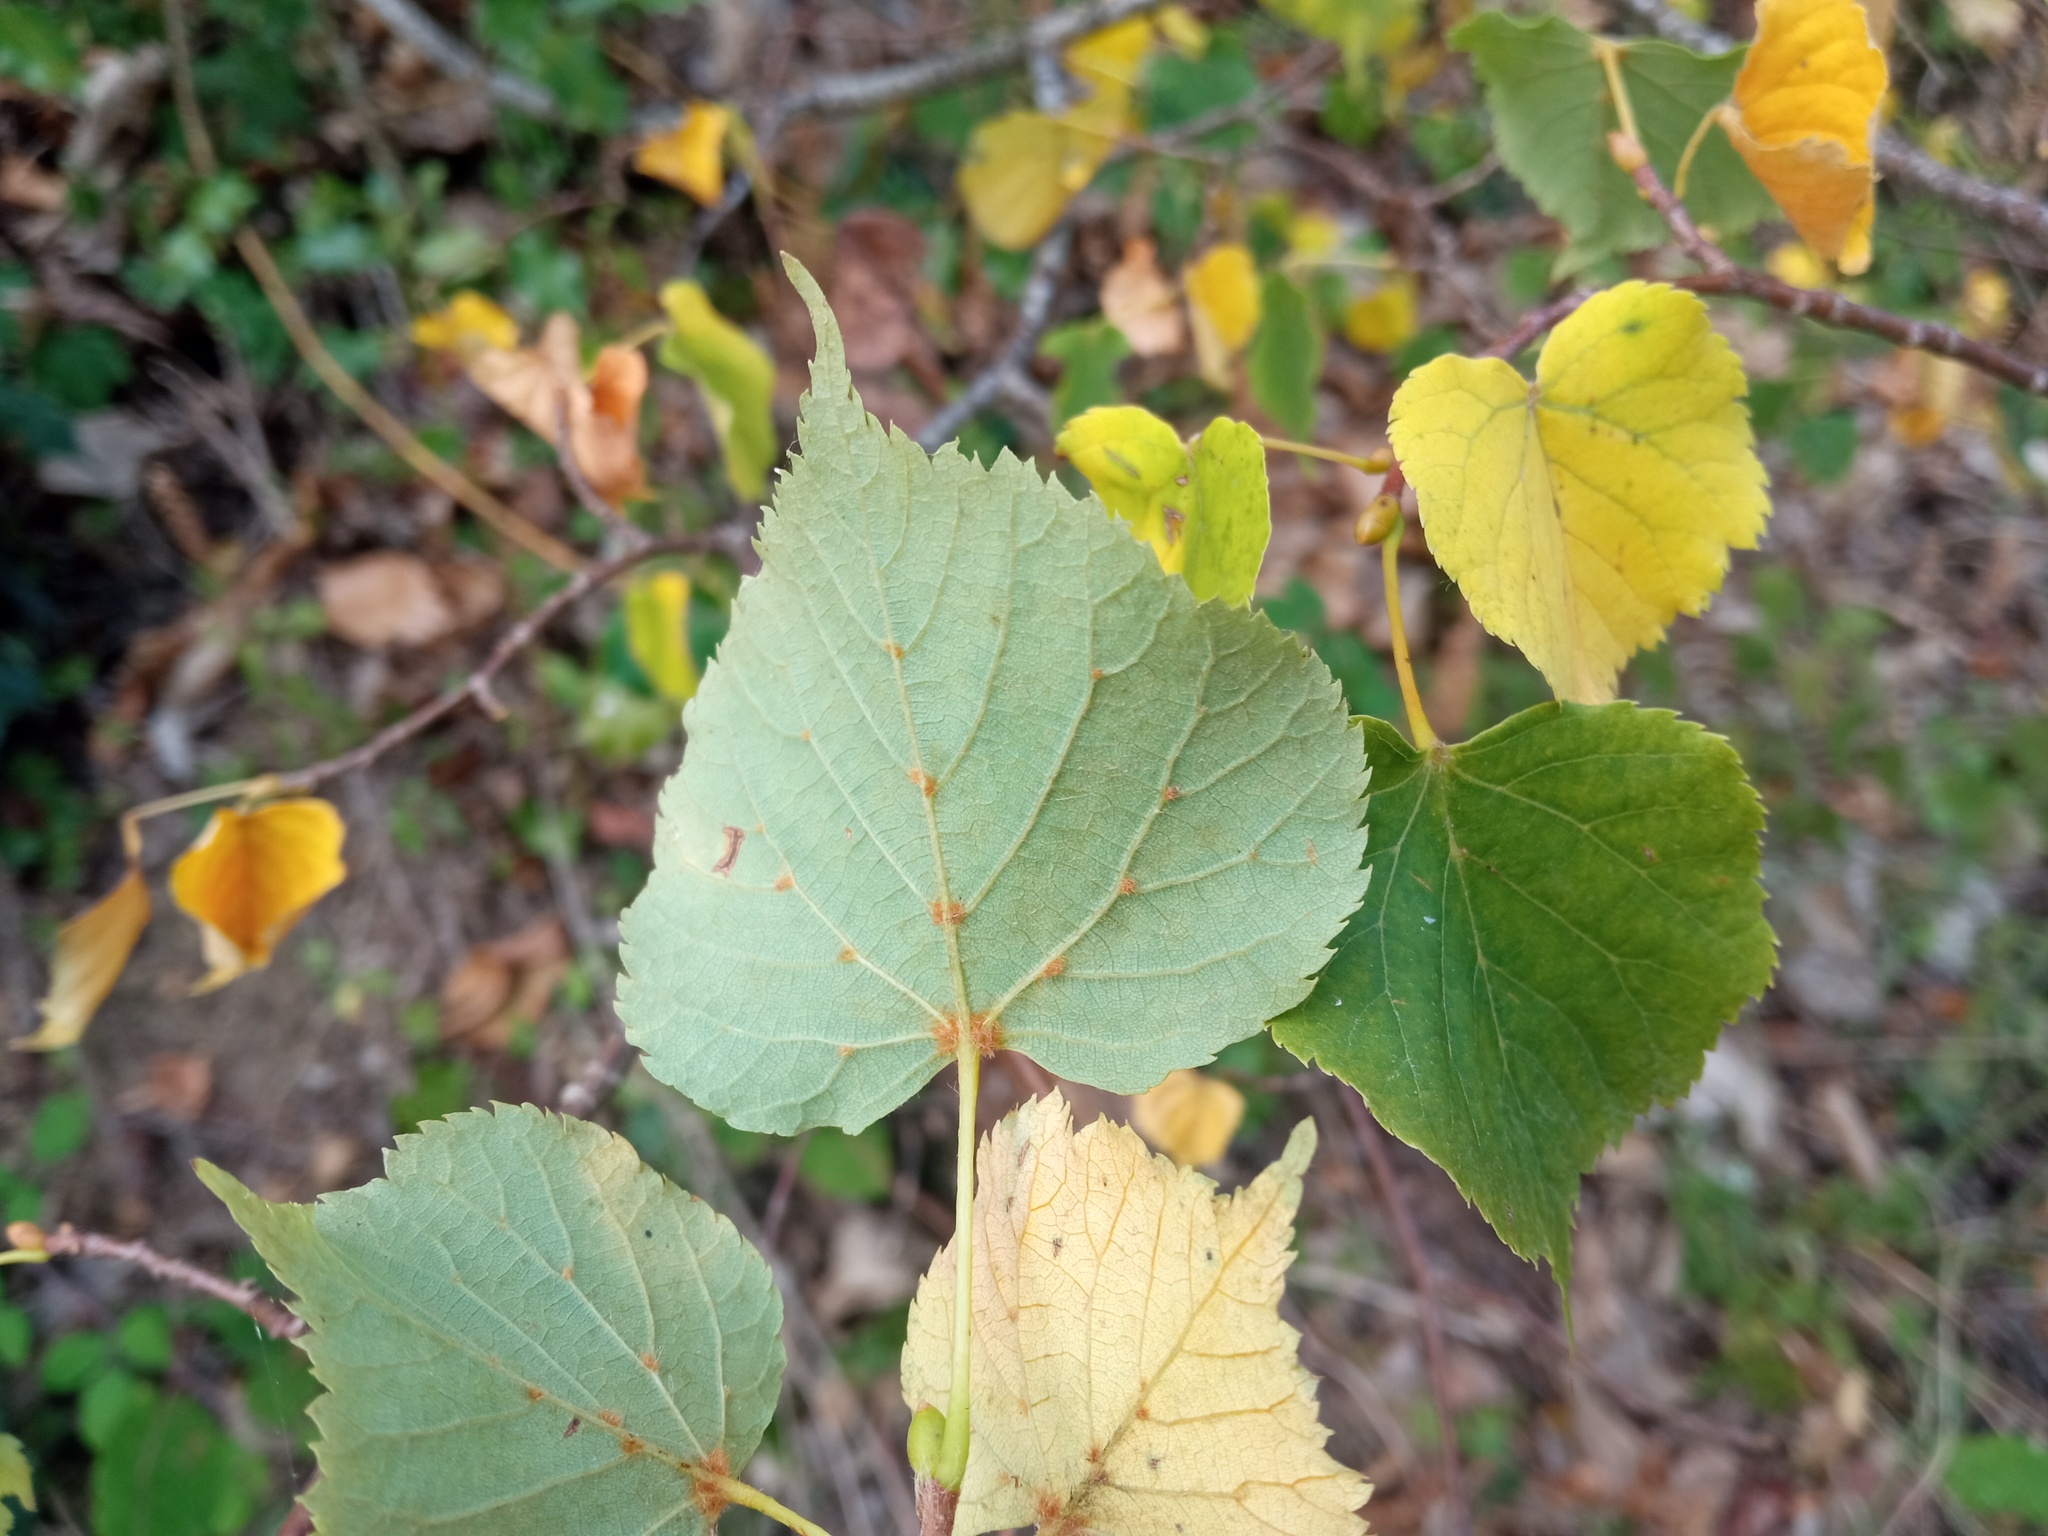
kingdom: Plantae
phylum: Tracheophyta
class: Magnoliopsida
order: Malvales
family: Malvaceae
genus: Tilia
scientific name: Tilia cordata
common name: Small-leaved lime
